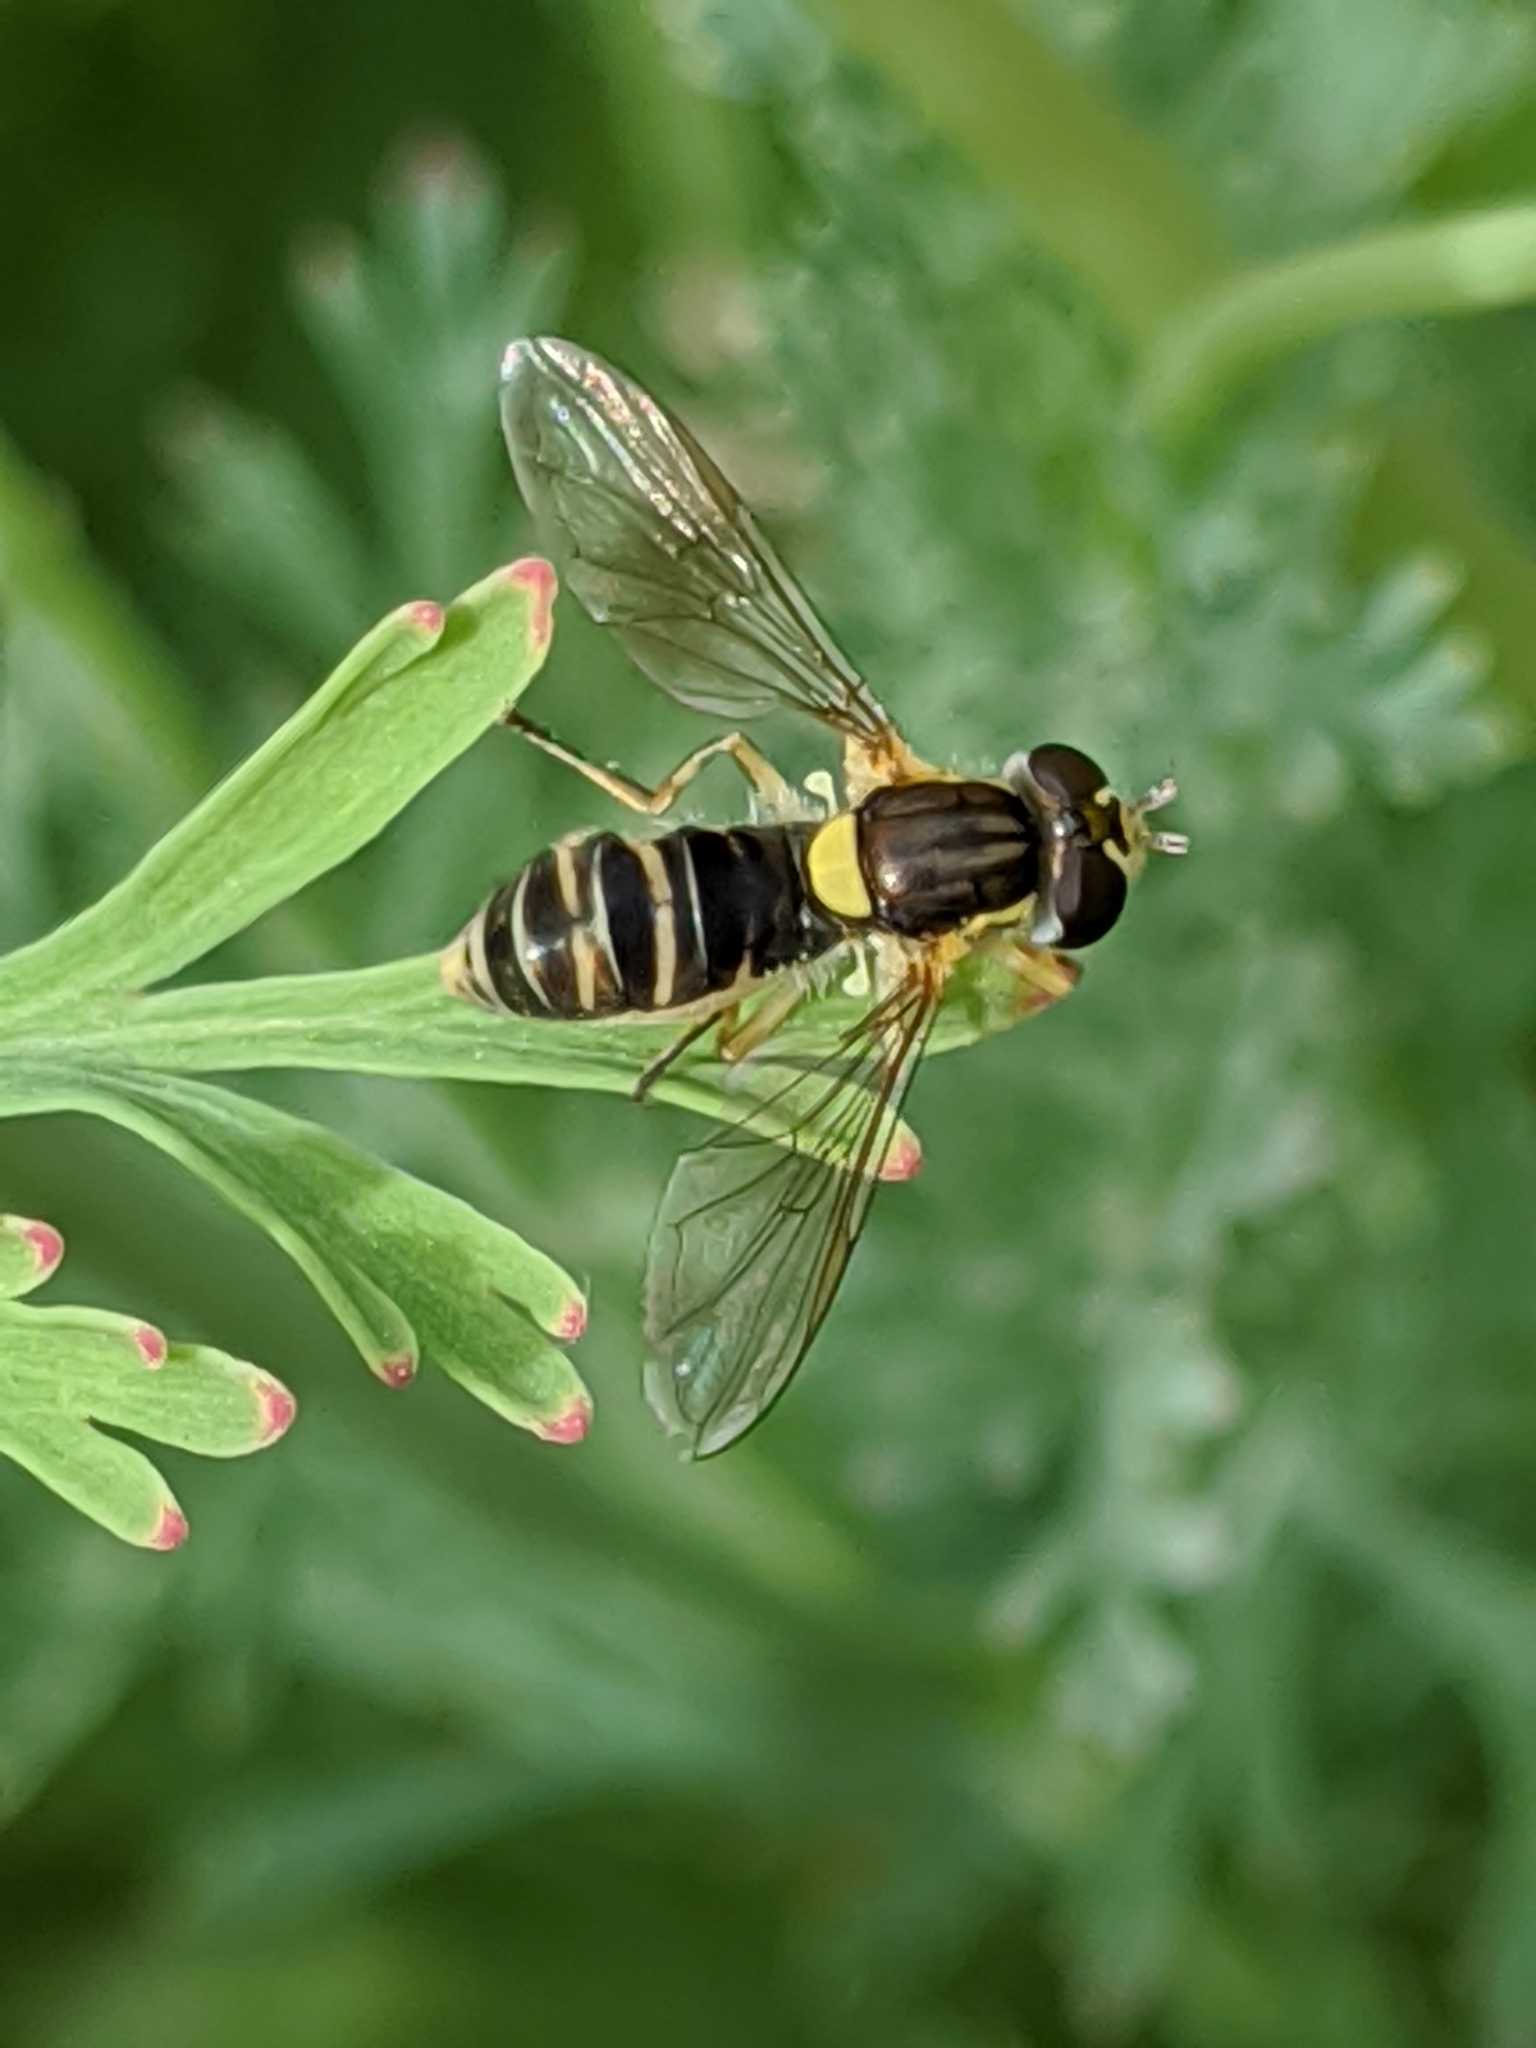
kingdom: Animalia
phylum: Arthropoda
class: Insecta
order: Diptera
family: Syrphidae
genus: Sphaerophoria
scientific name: Sphaerophoria sulphuripes
